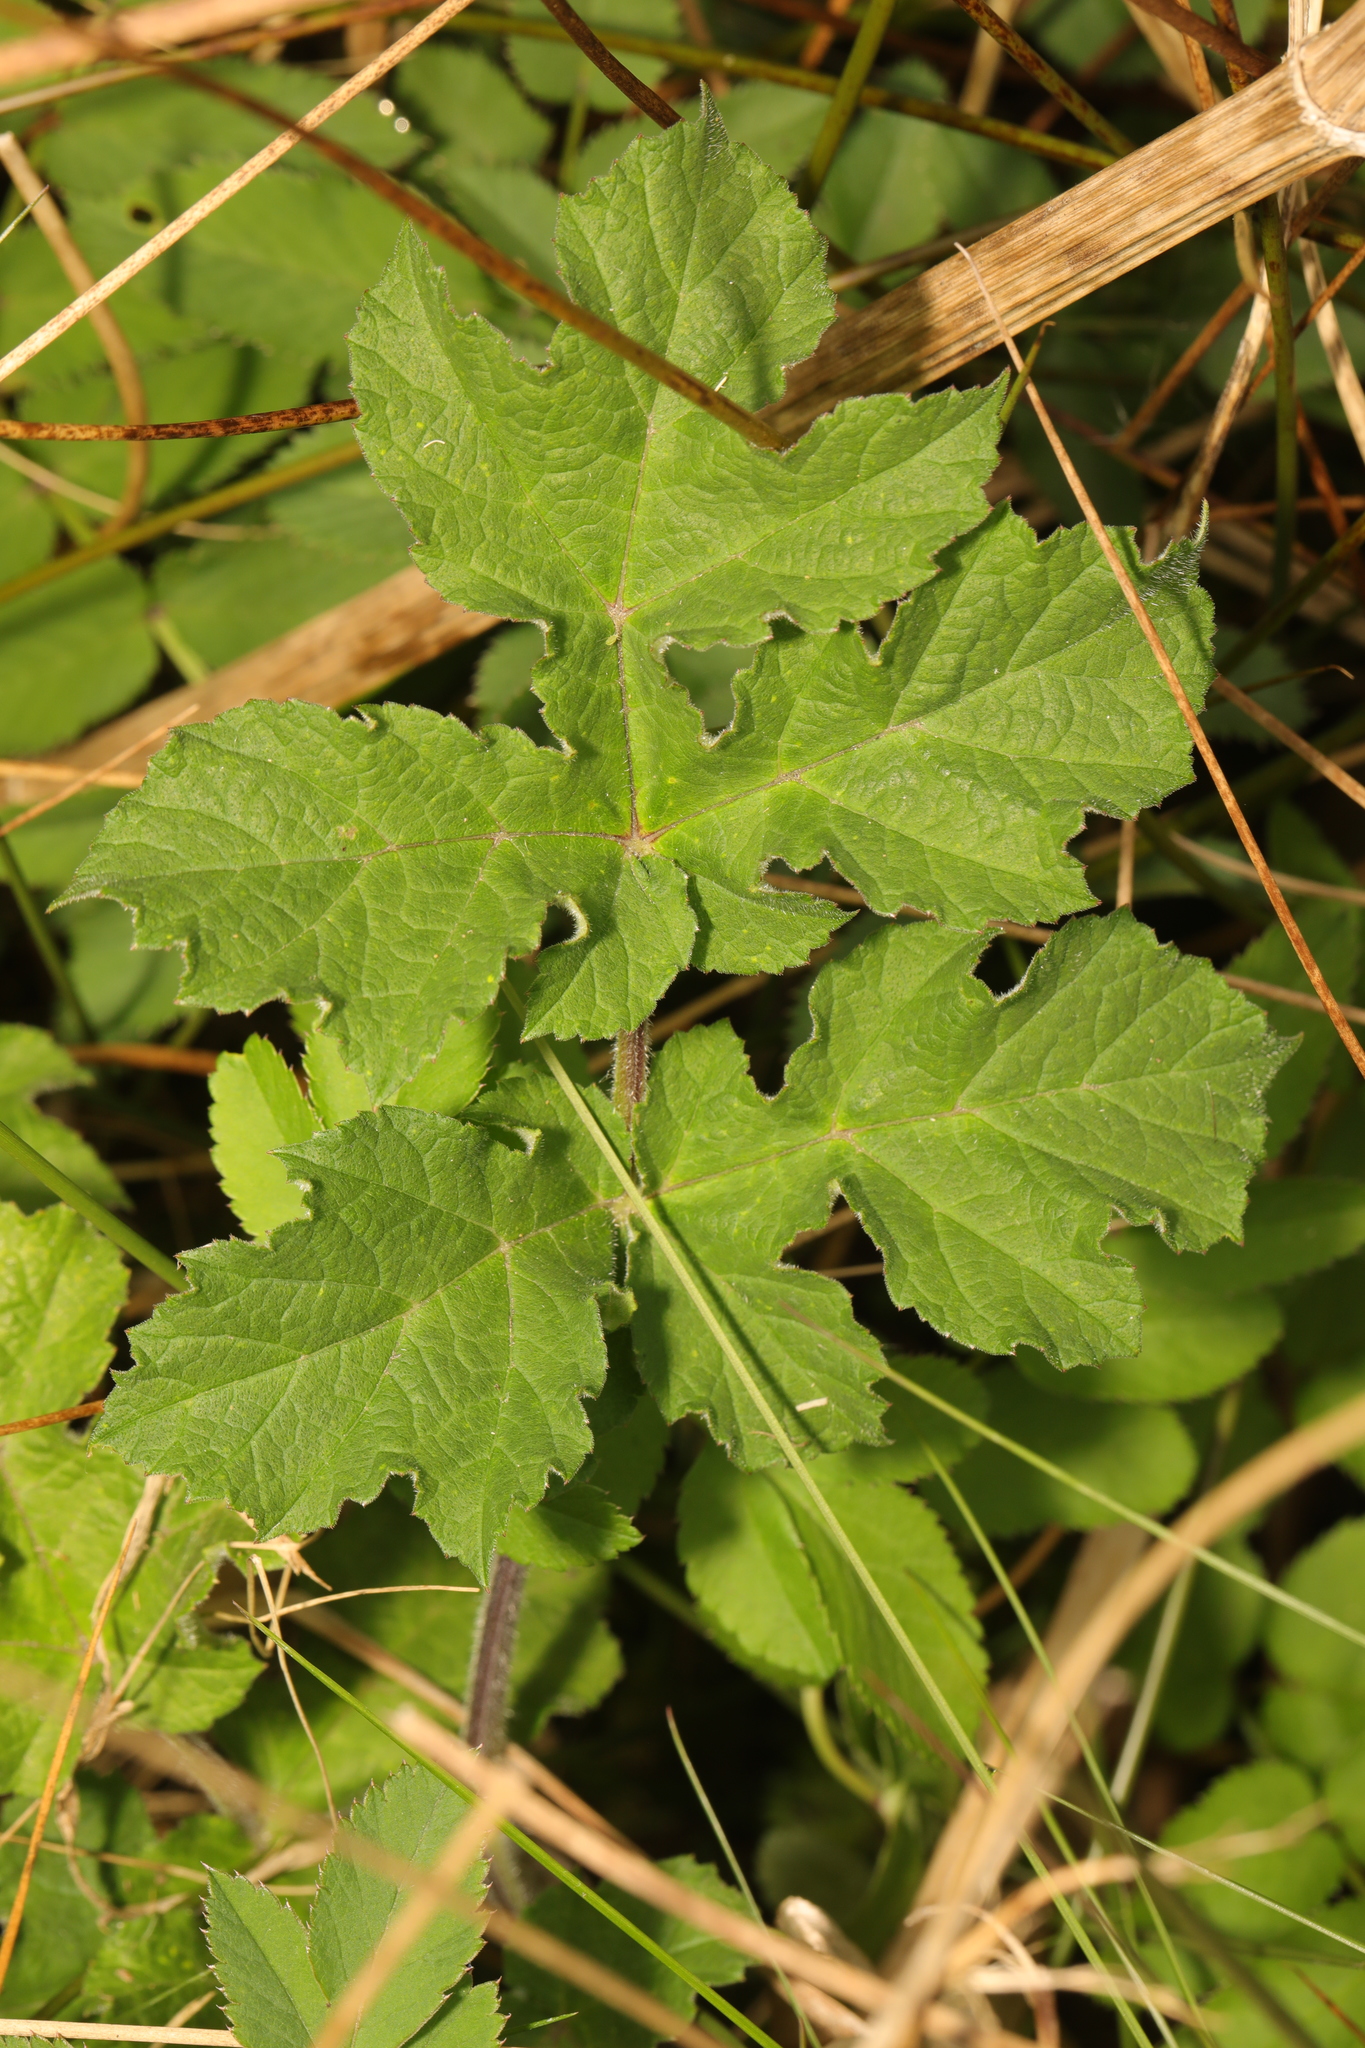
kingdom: Plantae
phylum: Tracheophyta
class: Magnoliopsida
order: Apiales
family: Apiaceae
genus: Heracleum
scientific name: Heracleum sphondylium
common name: Hogweed
